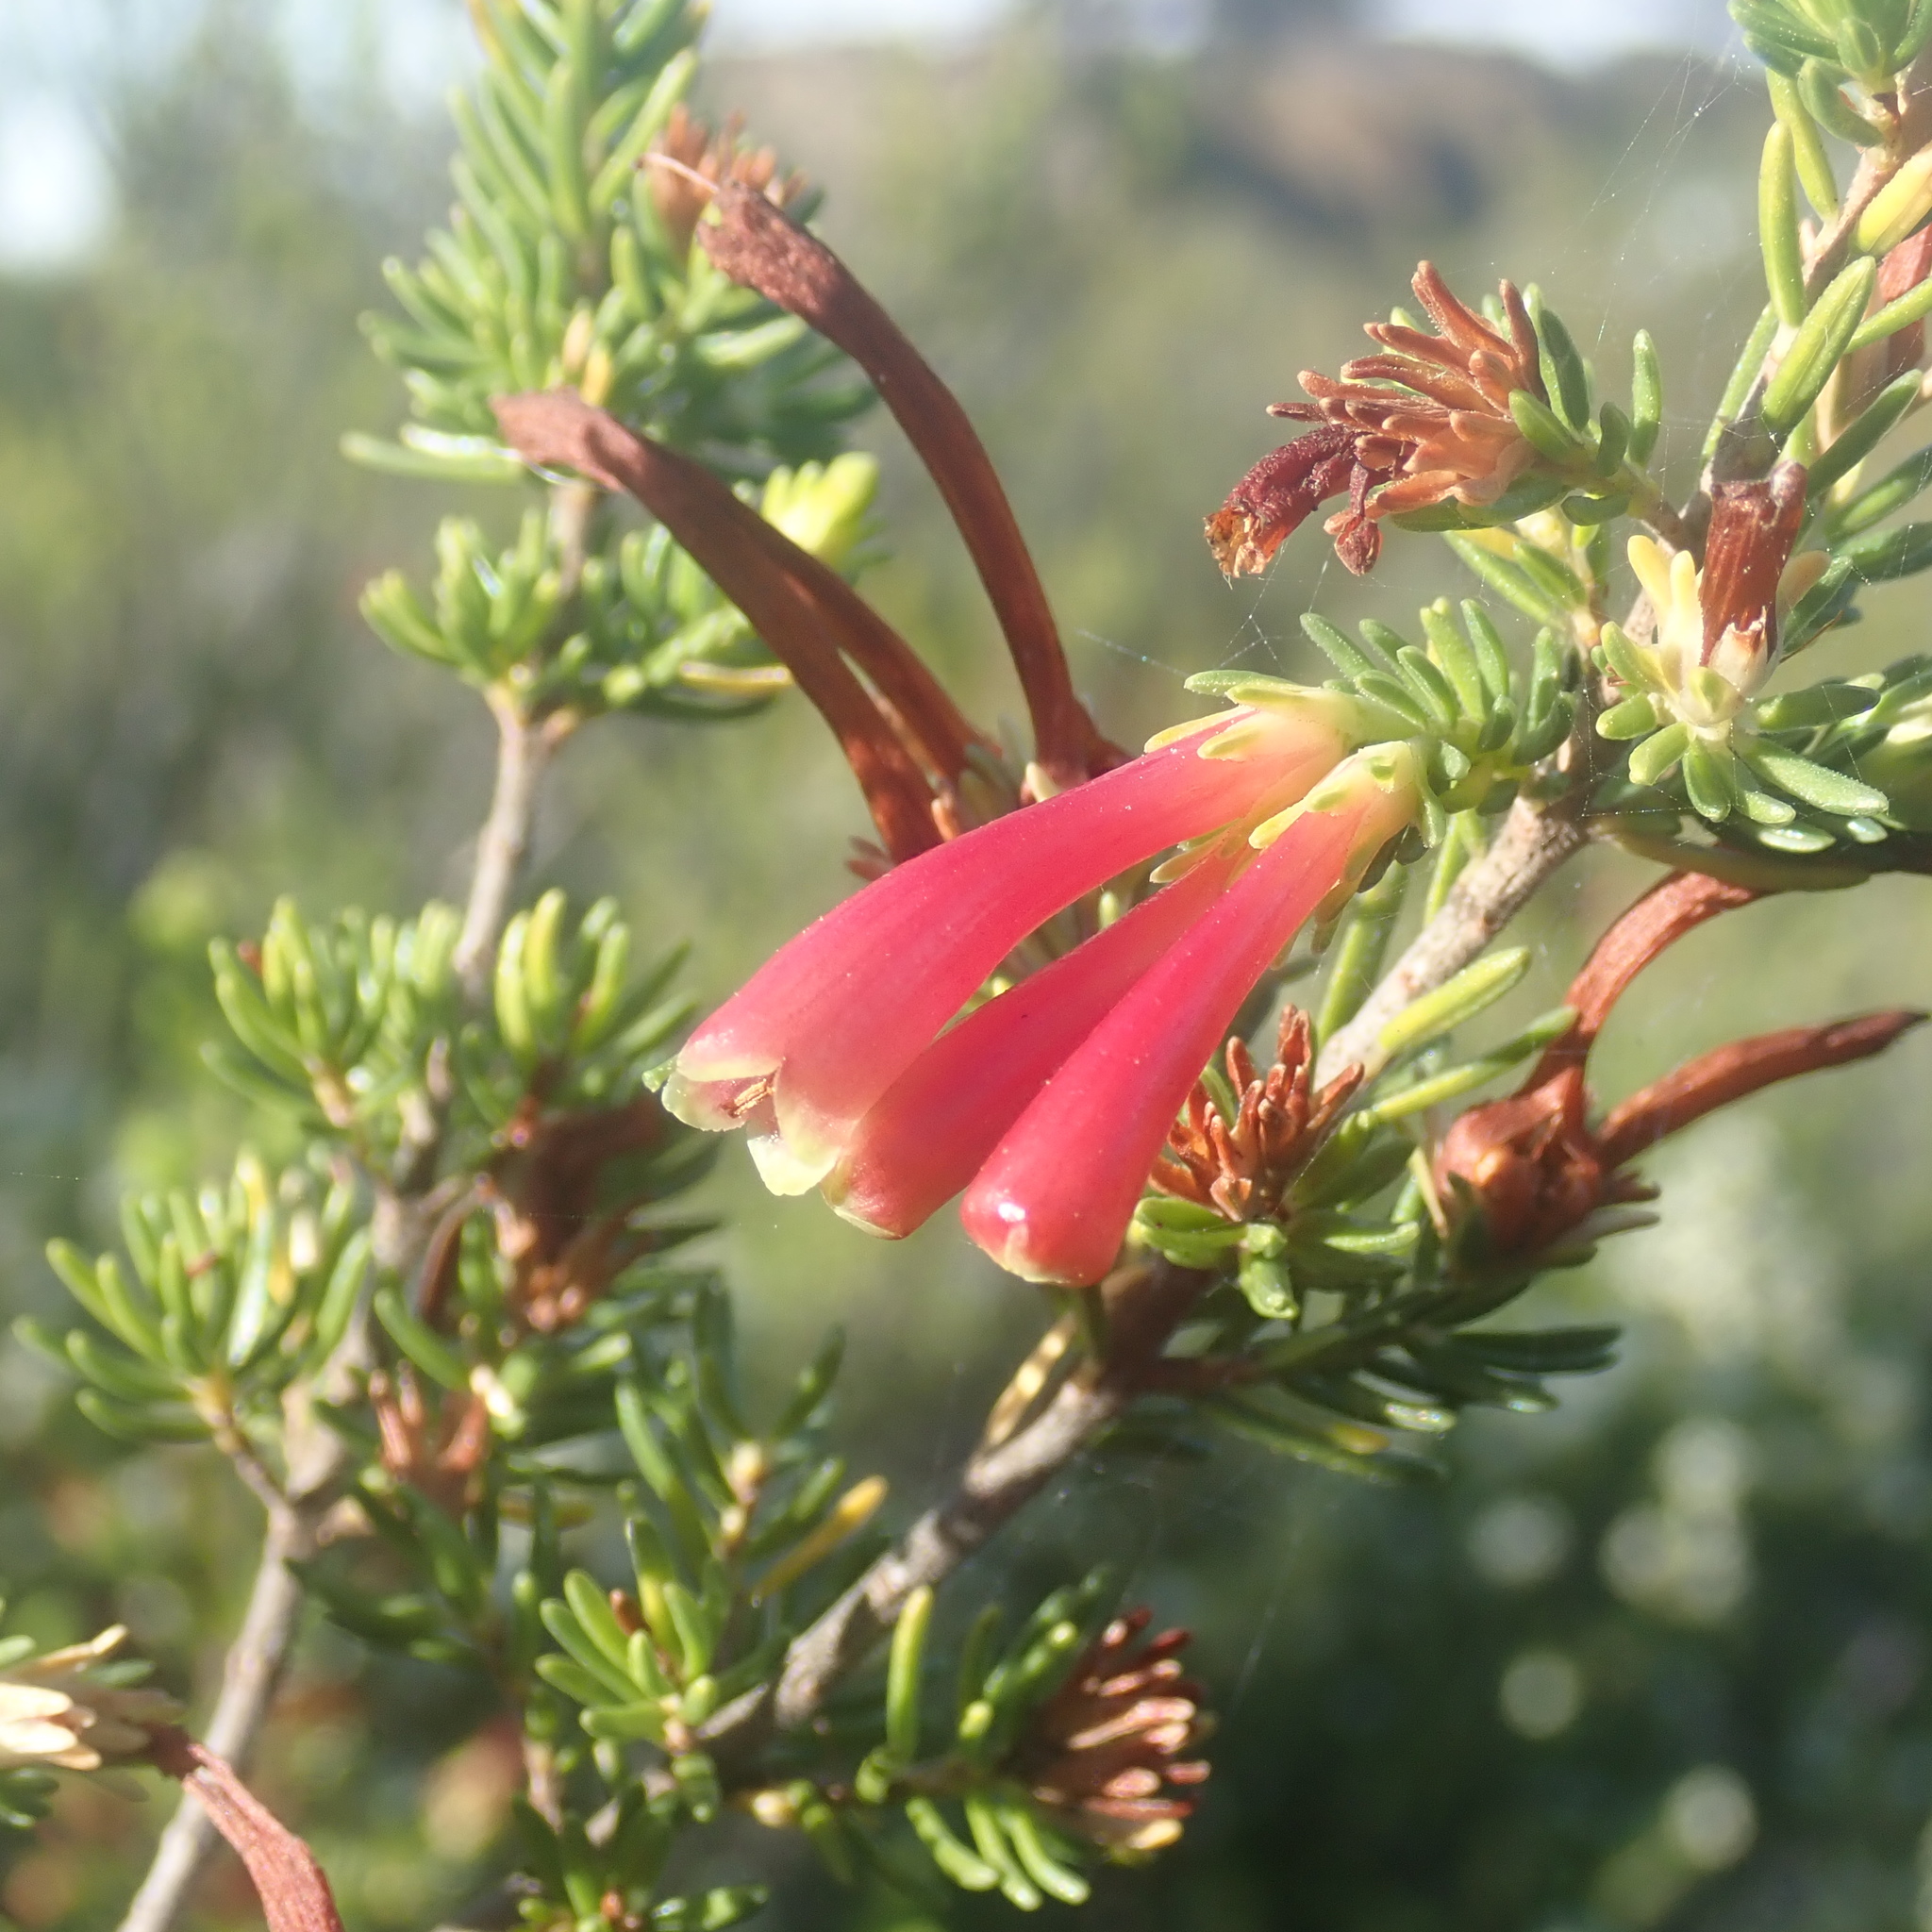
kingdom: Plantae
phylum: Tracheophyta
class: Magnoliopsida
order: Ericales
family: Ericaceae
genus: Erica
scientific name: Erica discolor
